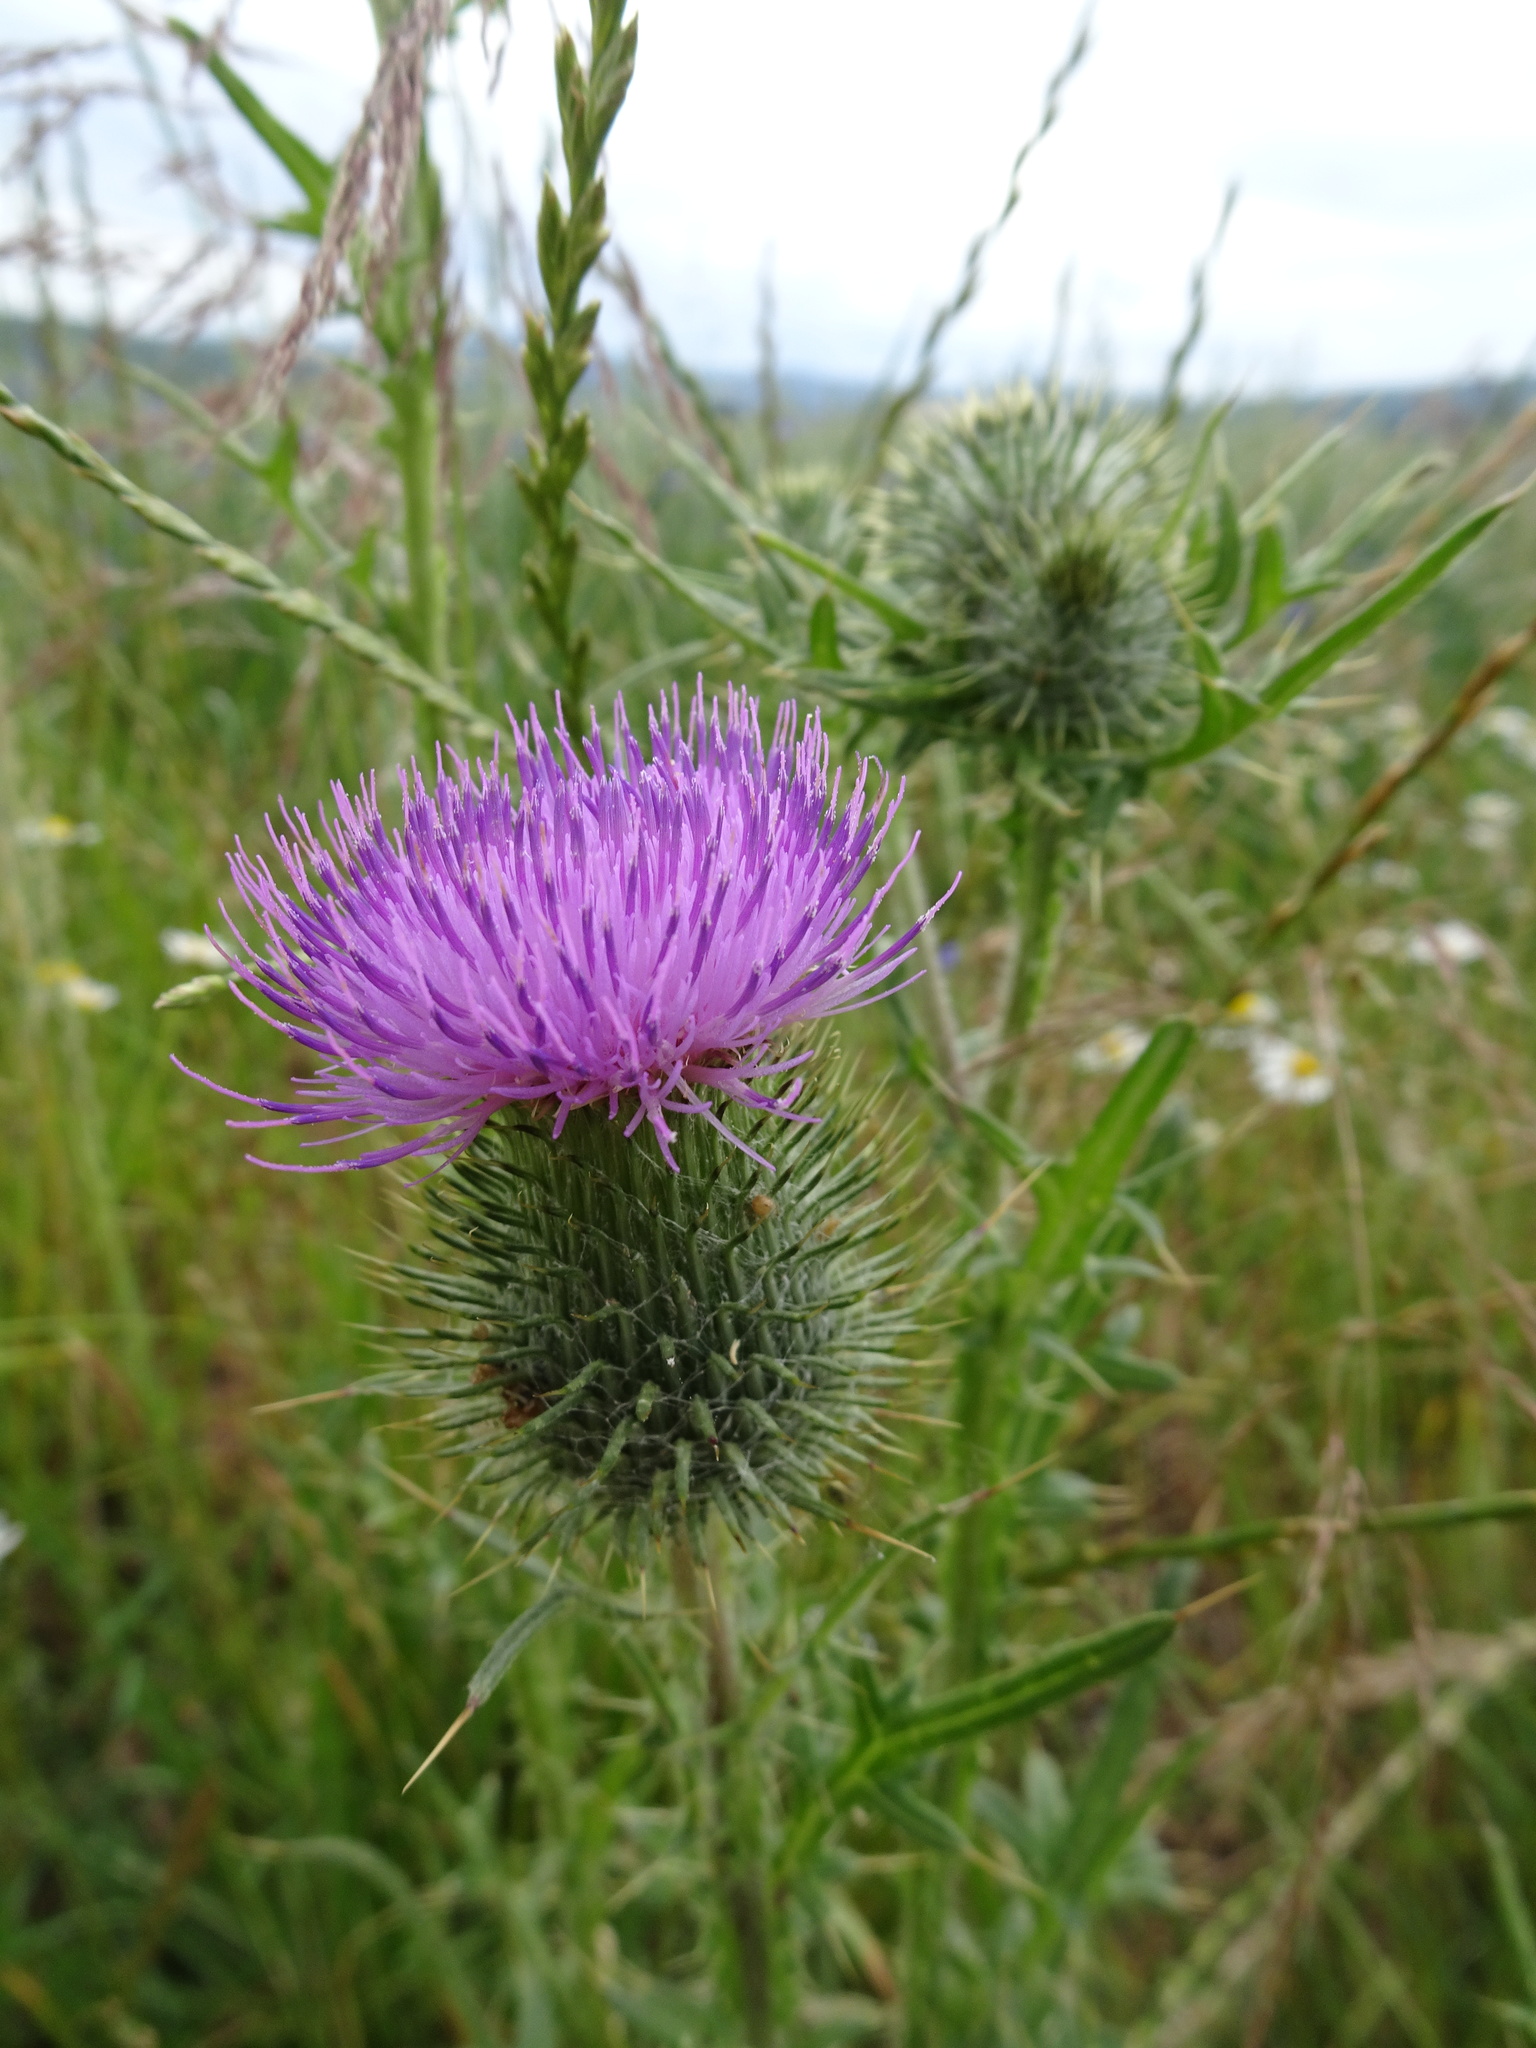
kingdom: Plantae
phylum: Tracheophyta
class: Magnoliopsida
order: Asterales
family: Asteraceae
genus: Cirsium
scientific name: Cirsium vulgare
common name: Bull thistle
